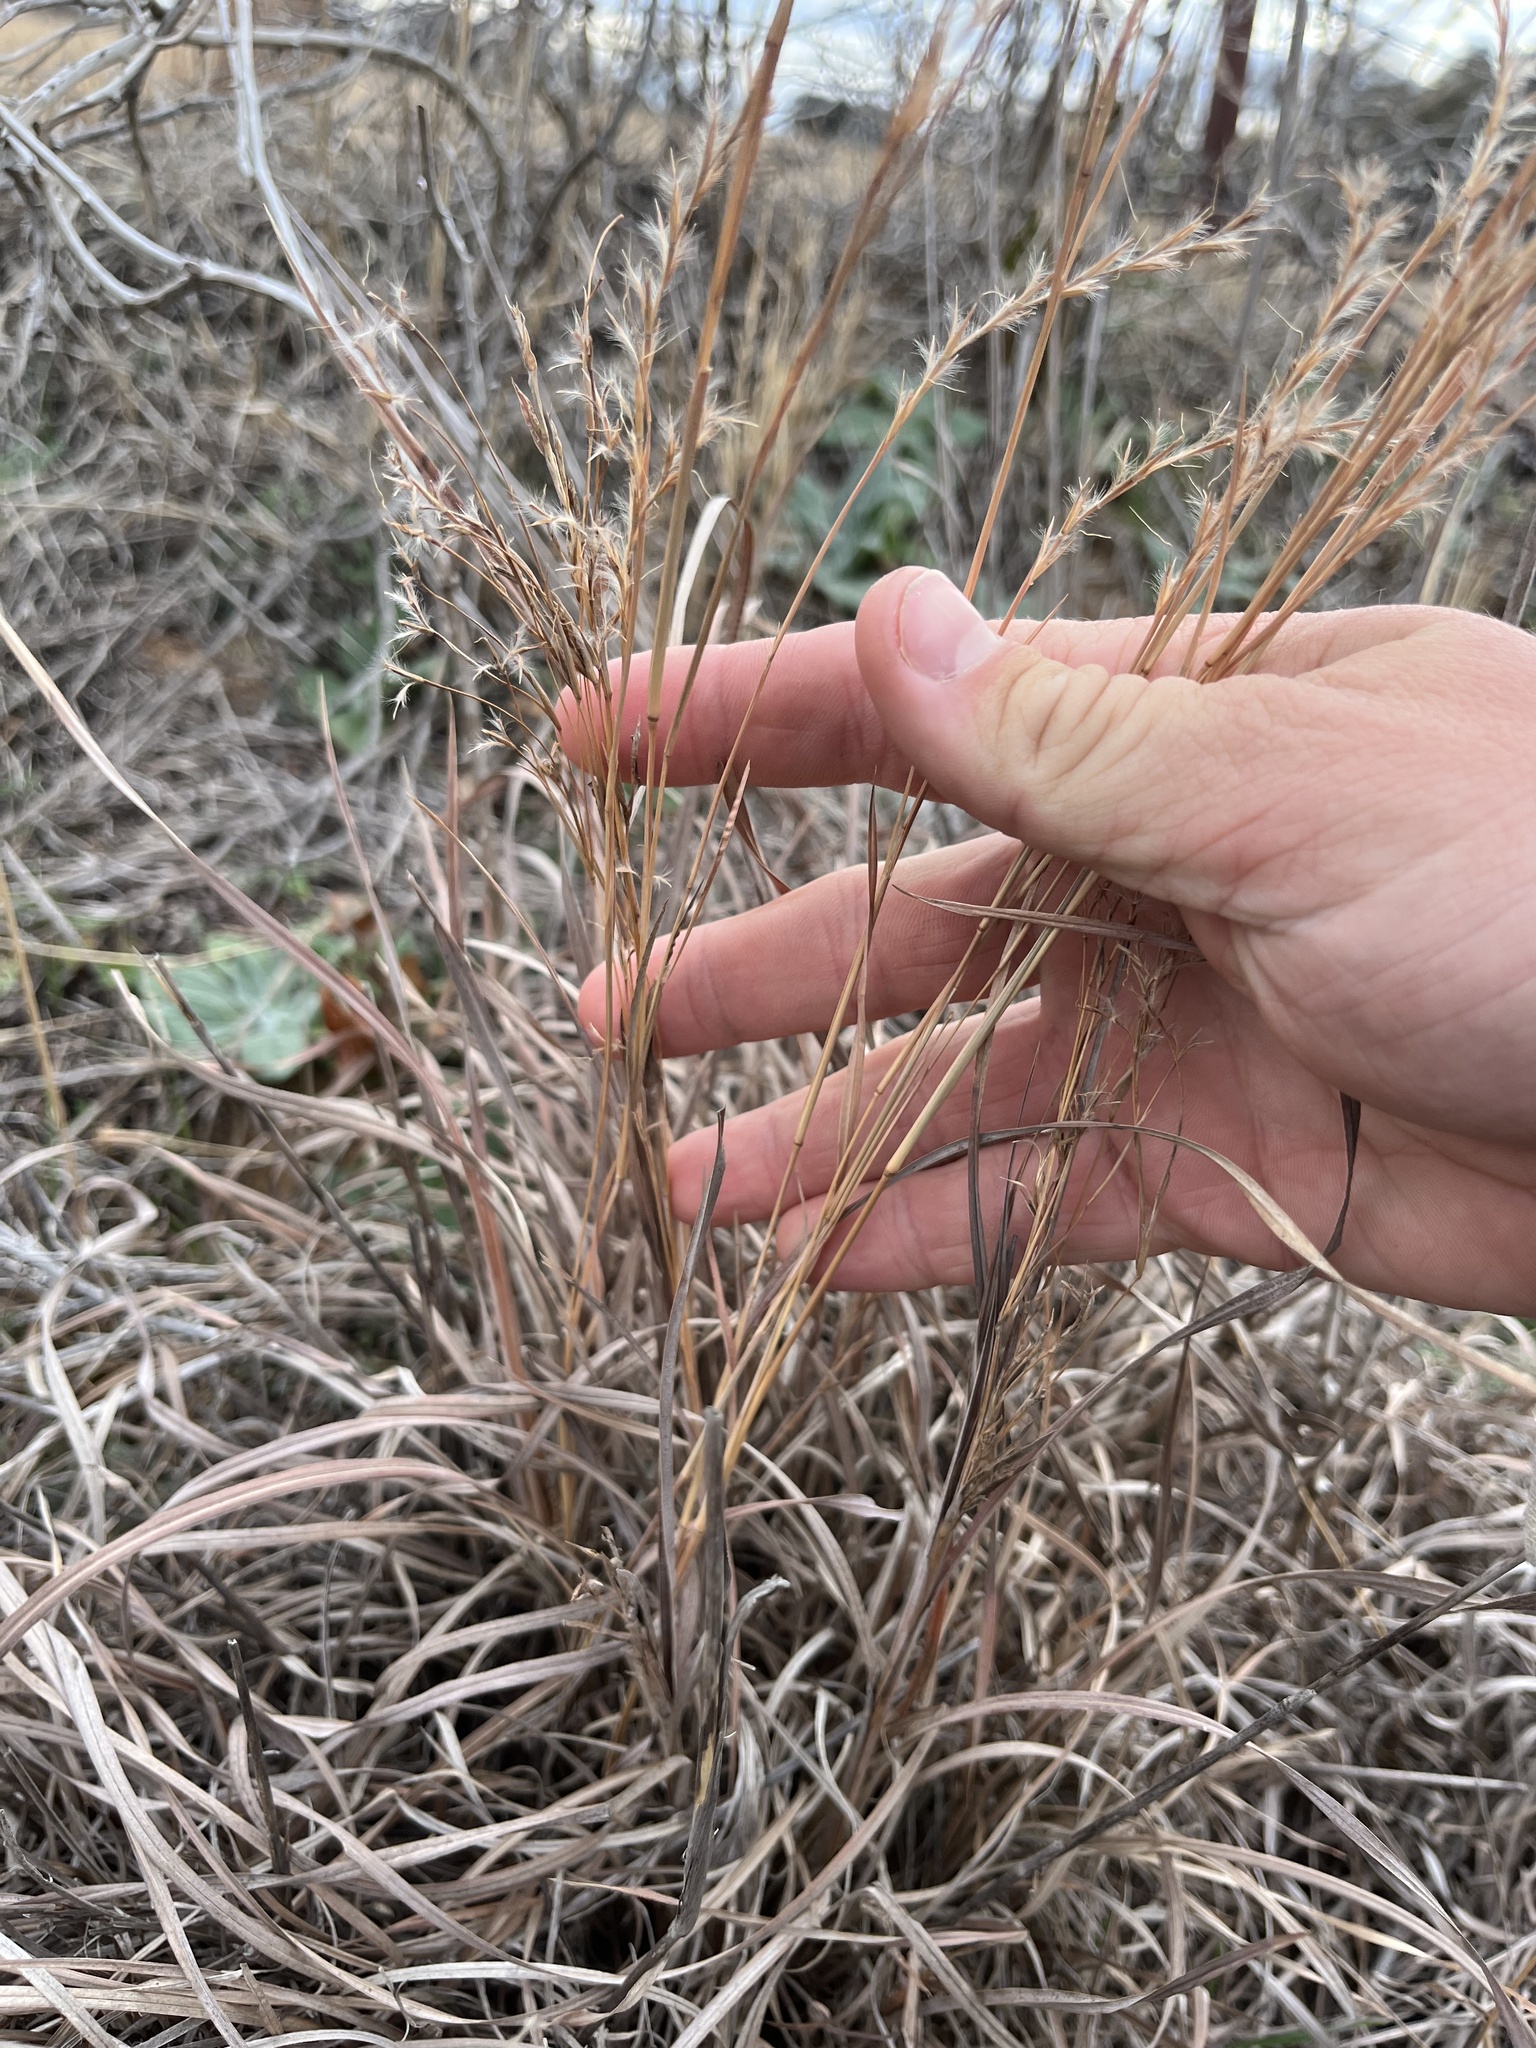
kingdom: Plantae
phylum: Tracheophyta
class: Liliopsida
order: Poales
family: Poaceae
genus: Schizachyrium
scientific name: Schizachyrium scoparium
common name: Little bluestem
